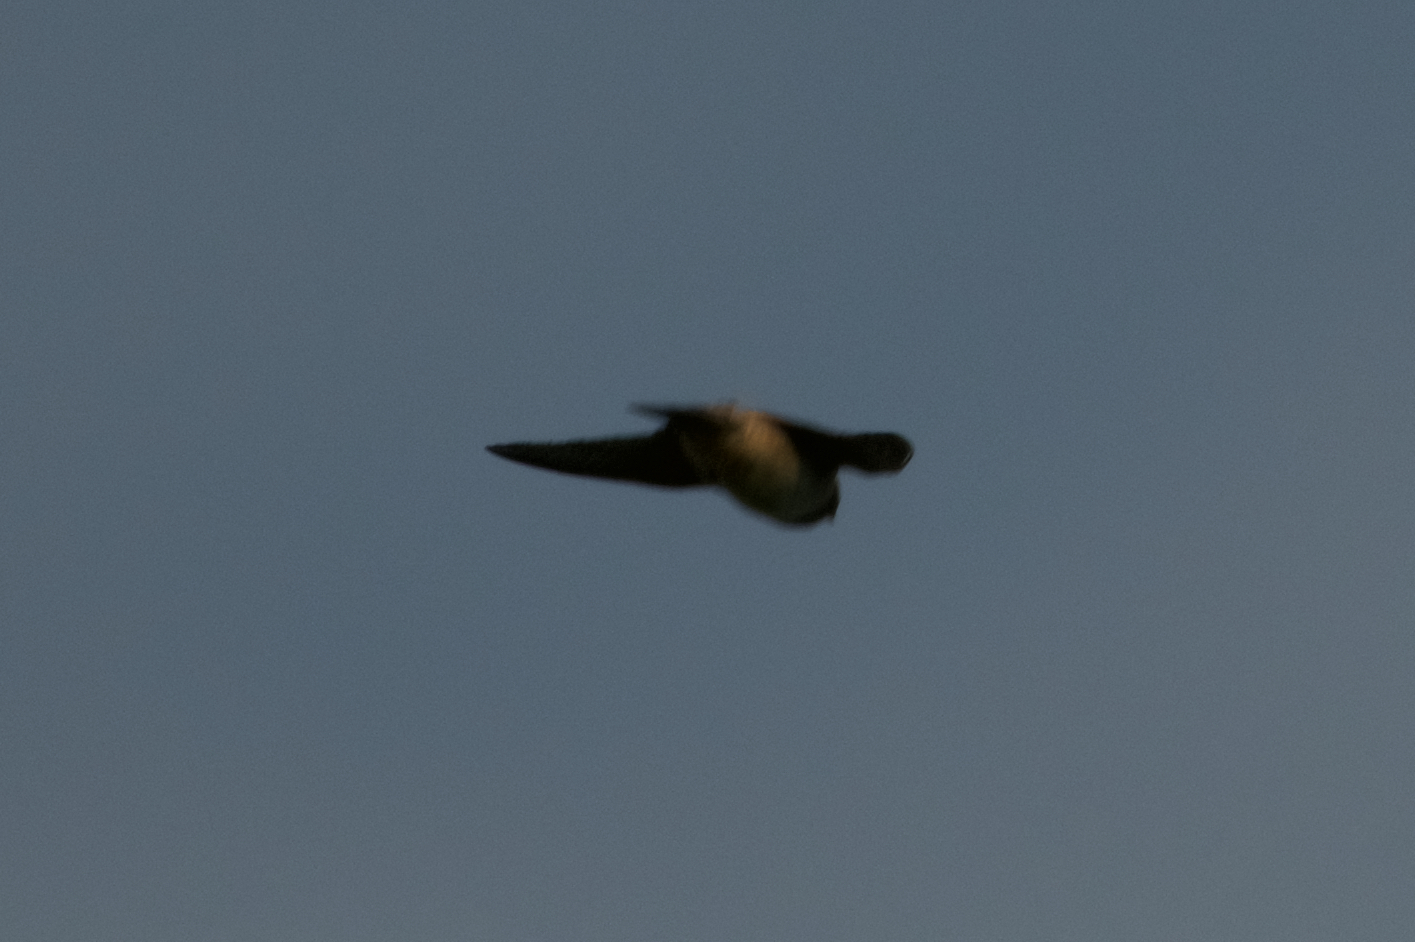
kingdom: Animalia
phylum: Chordata
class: Aves
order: Passeriformes
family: Hirundinidae
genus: Stelgidopteryx
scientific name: Stelgidopteryx serripennis
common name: Northern rough-winged swallow
